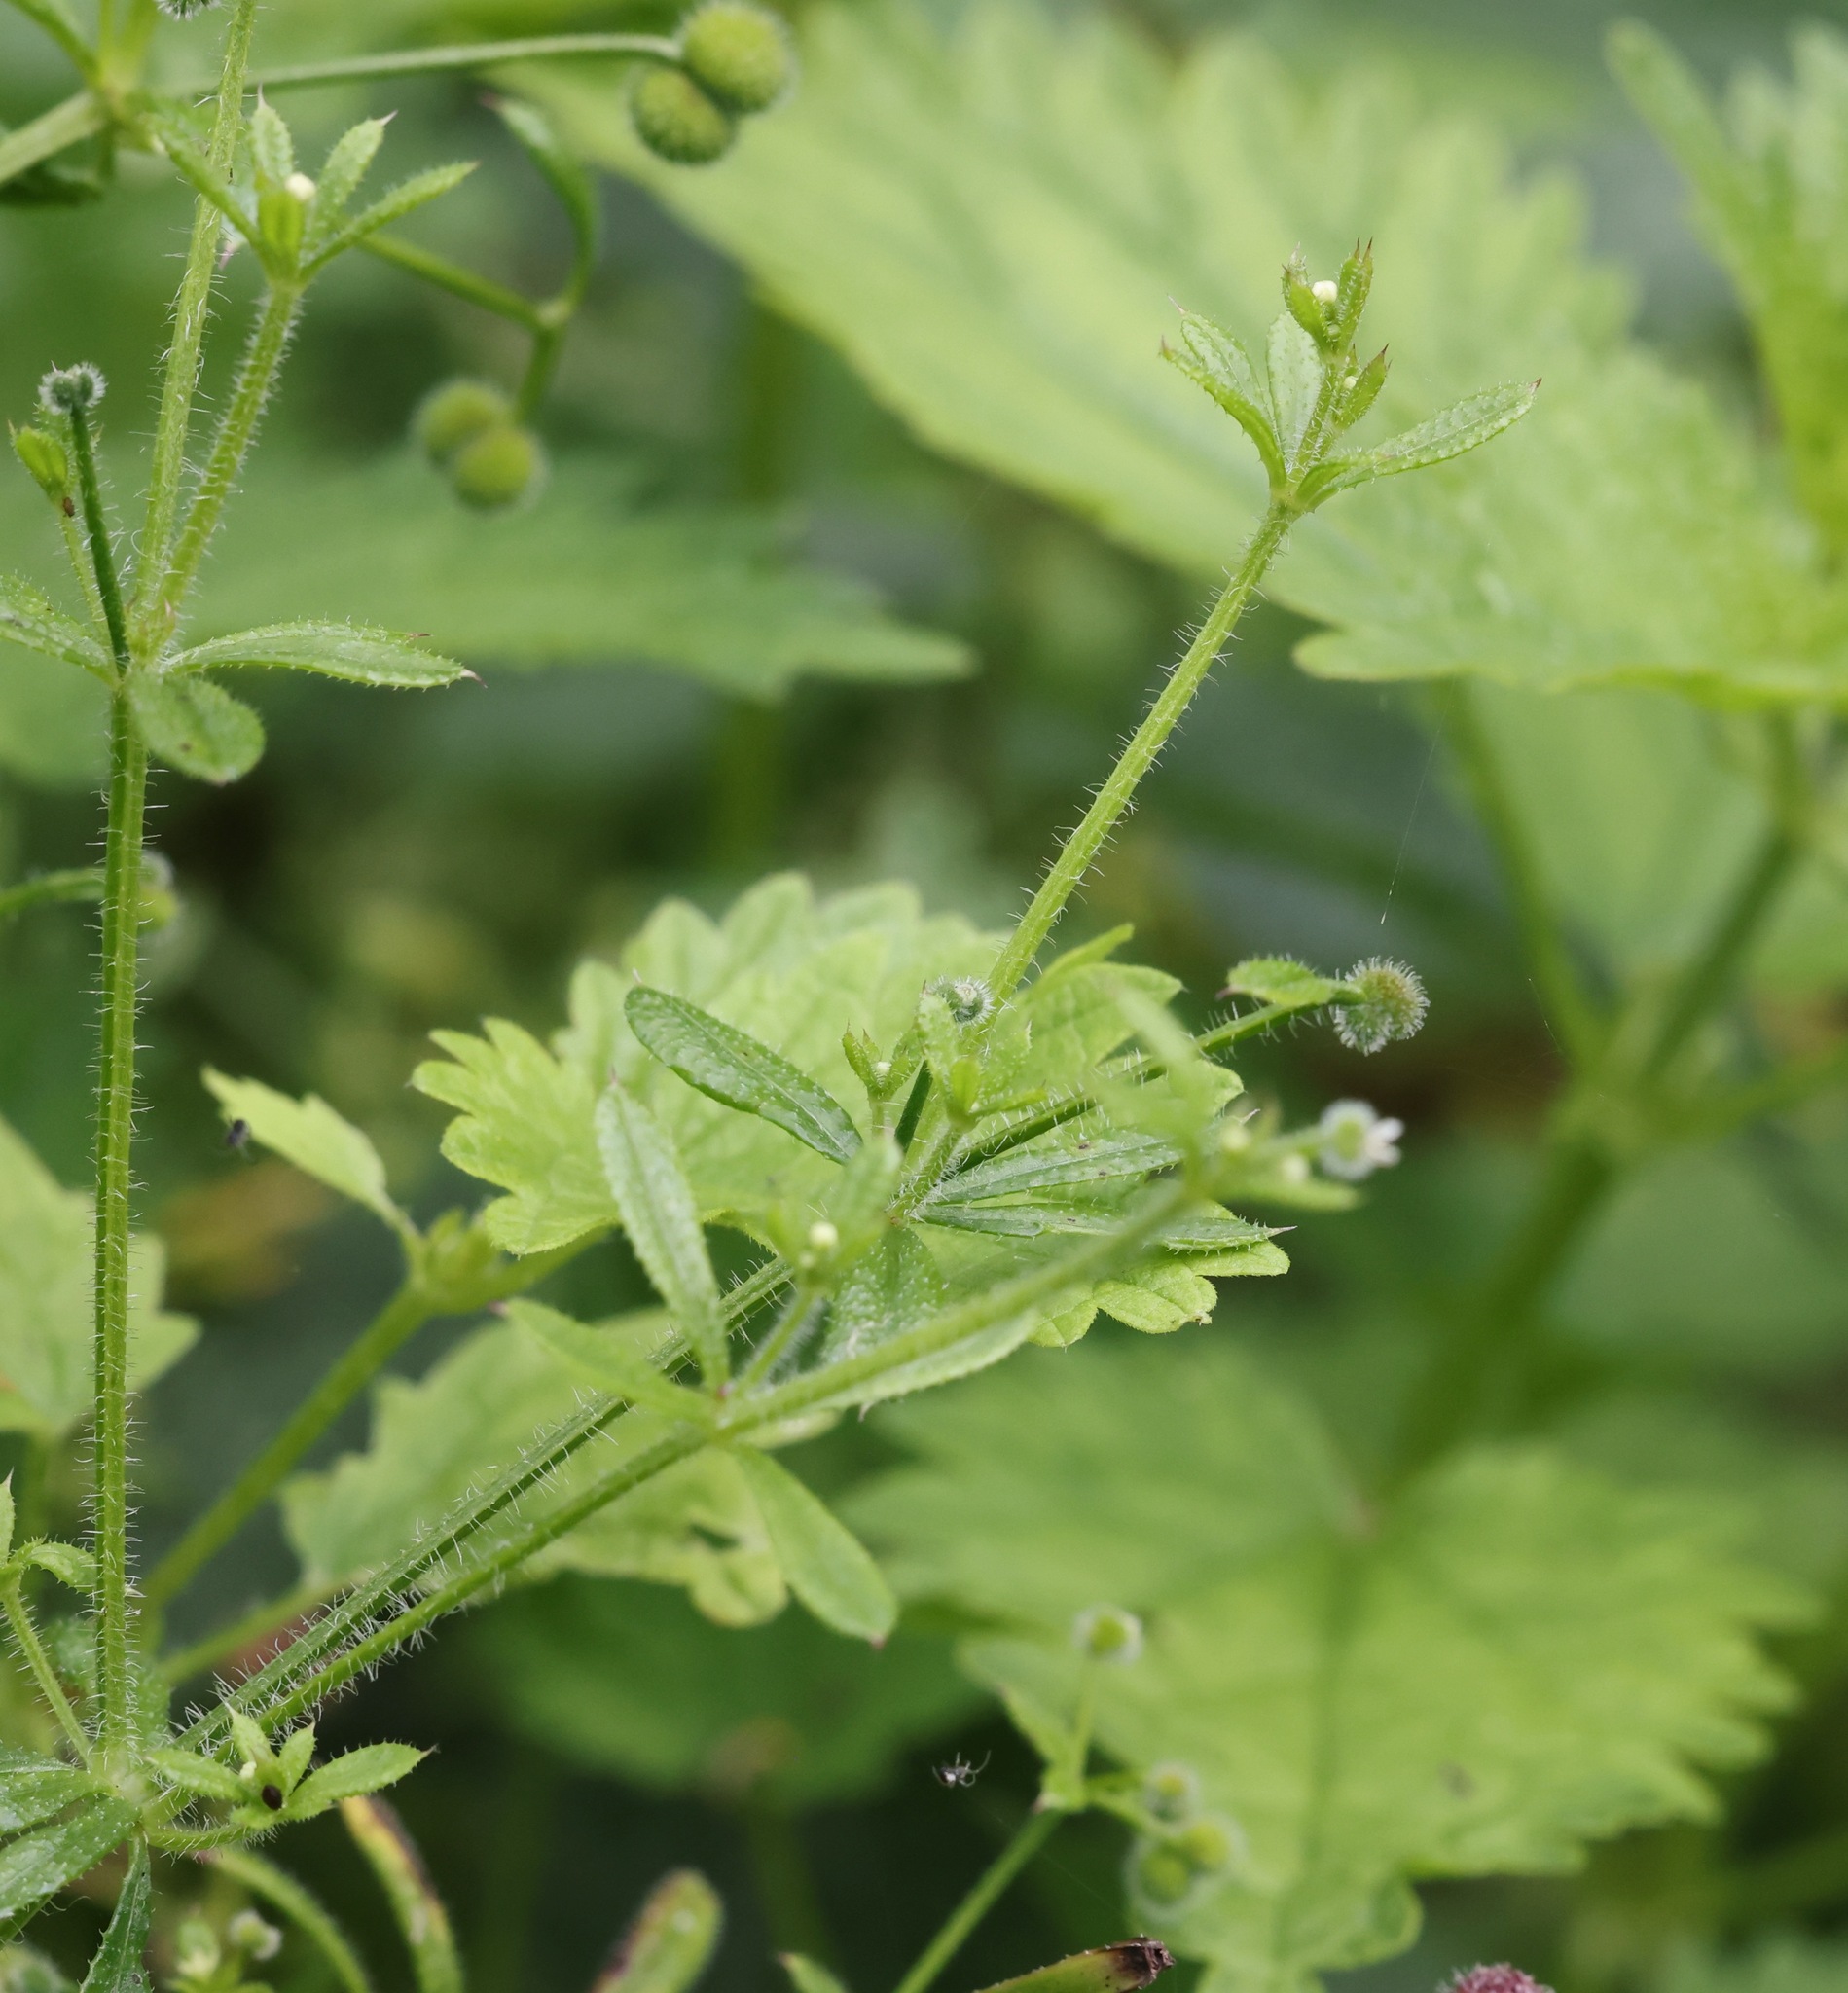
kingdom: Plantae
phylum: Tracheophyta
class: Magnoliopsida
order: Gentianales
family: Rubiaceae
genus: Galium
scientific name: Galium aparine
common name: Cleavers
